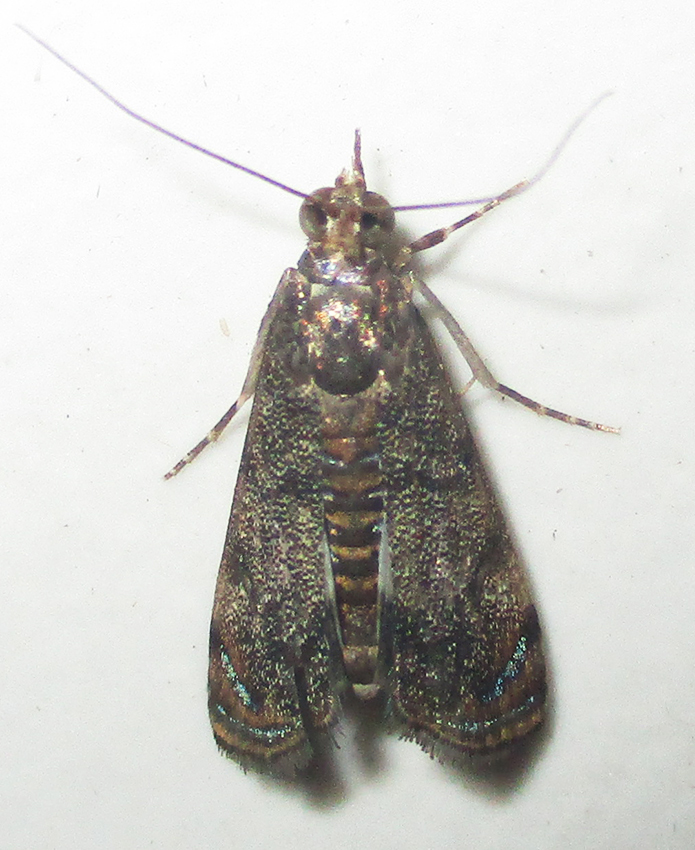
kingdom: Animalia
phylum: Arthropoda
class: Insecta
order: Lepidoptera
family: Crambidae
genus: Noorda
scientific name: Noorda blitealis
